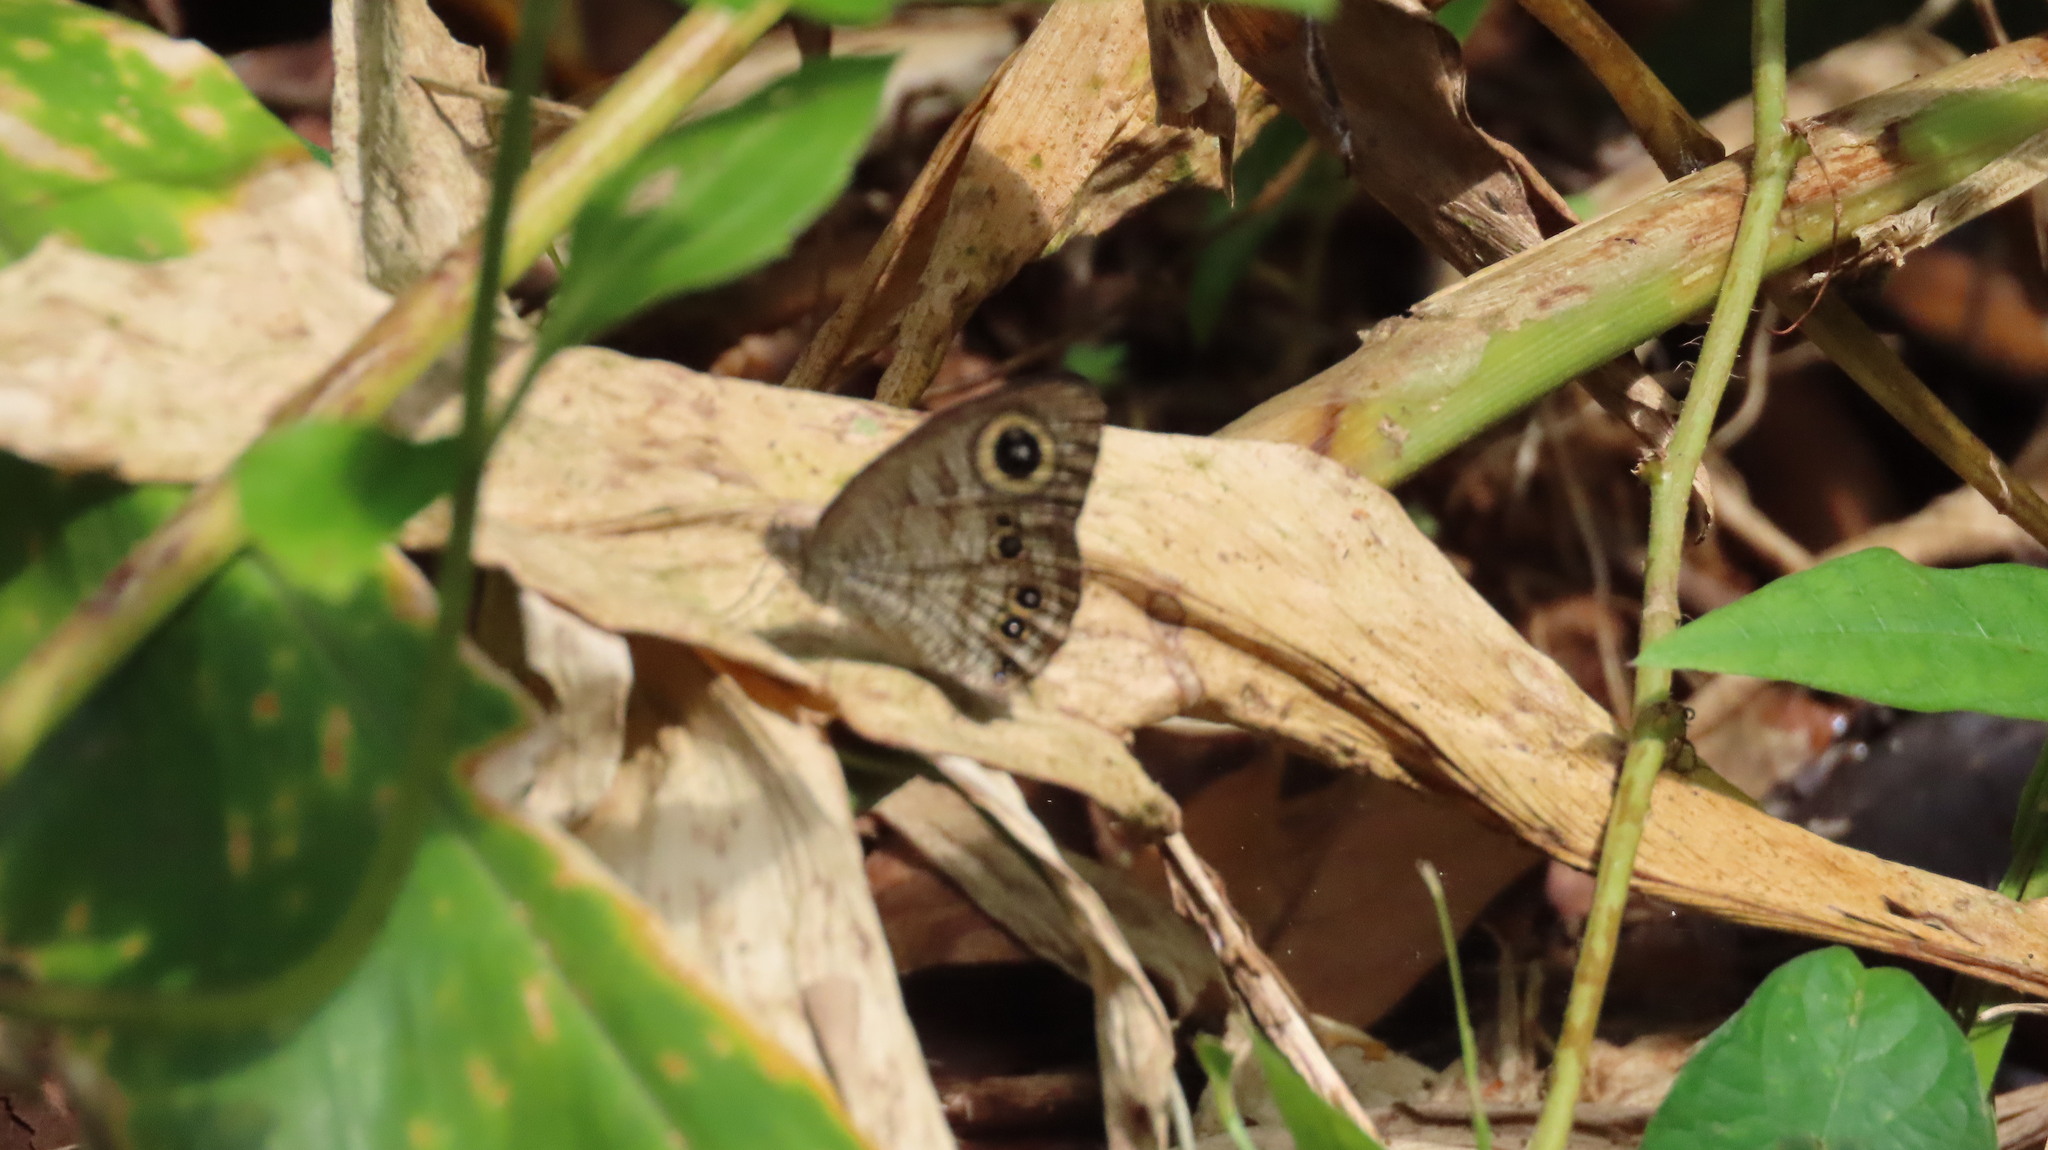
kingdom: Animalia
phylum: Arthropoda
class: Insecta
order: Lepidoptera
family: Nymphalidae
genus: Ypthima
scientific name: Ypthima baldus
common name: Common five-ring
